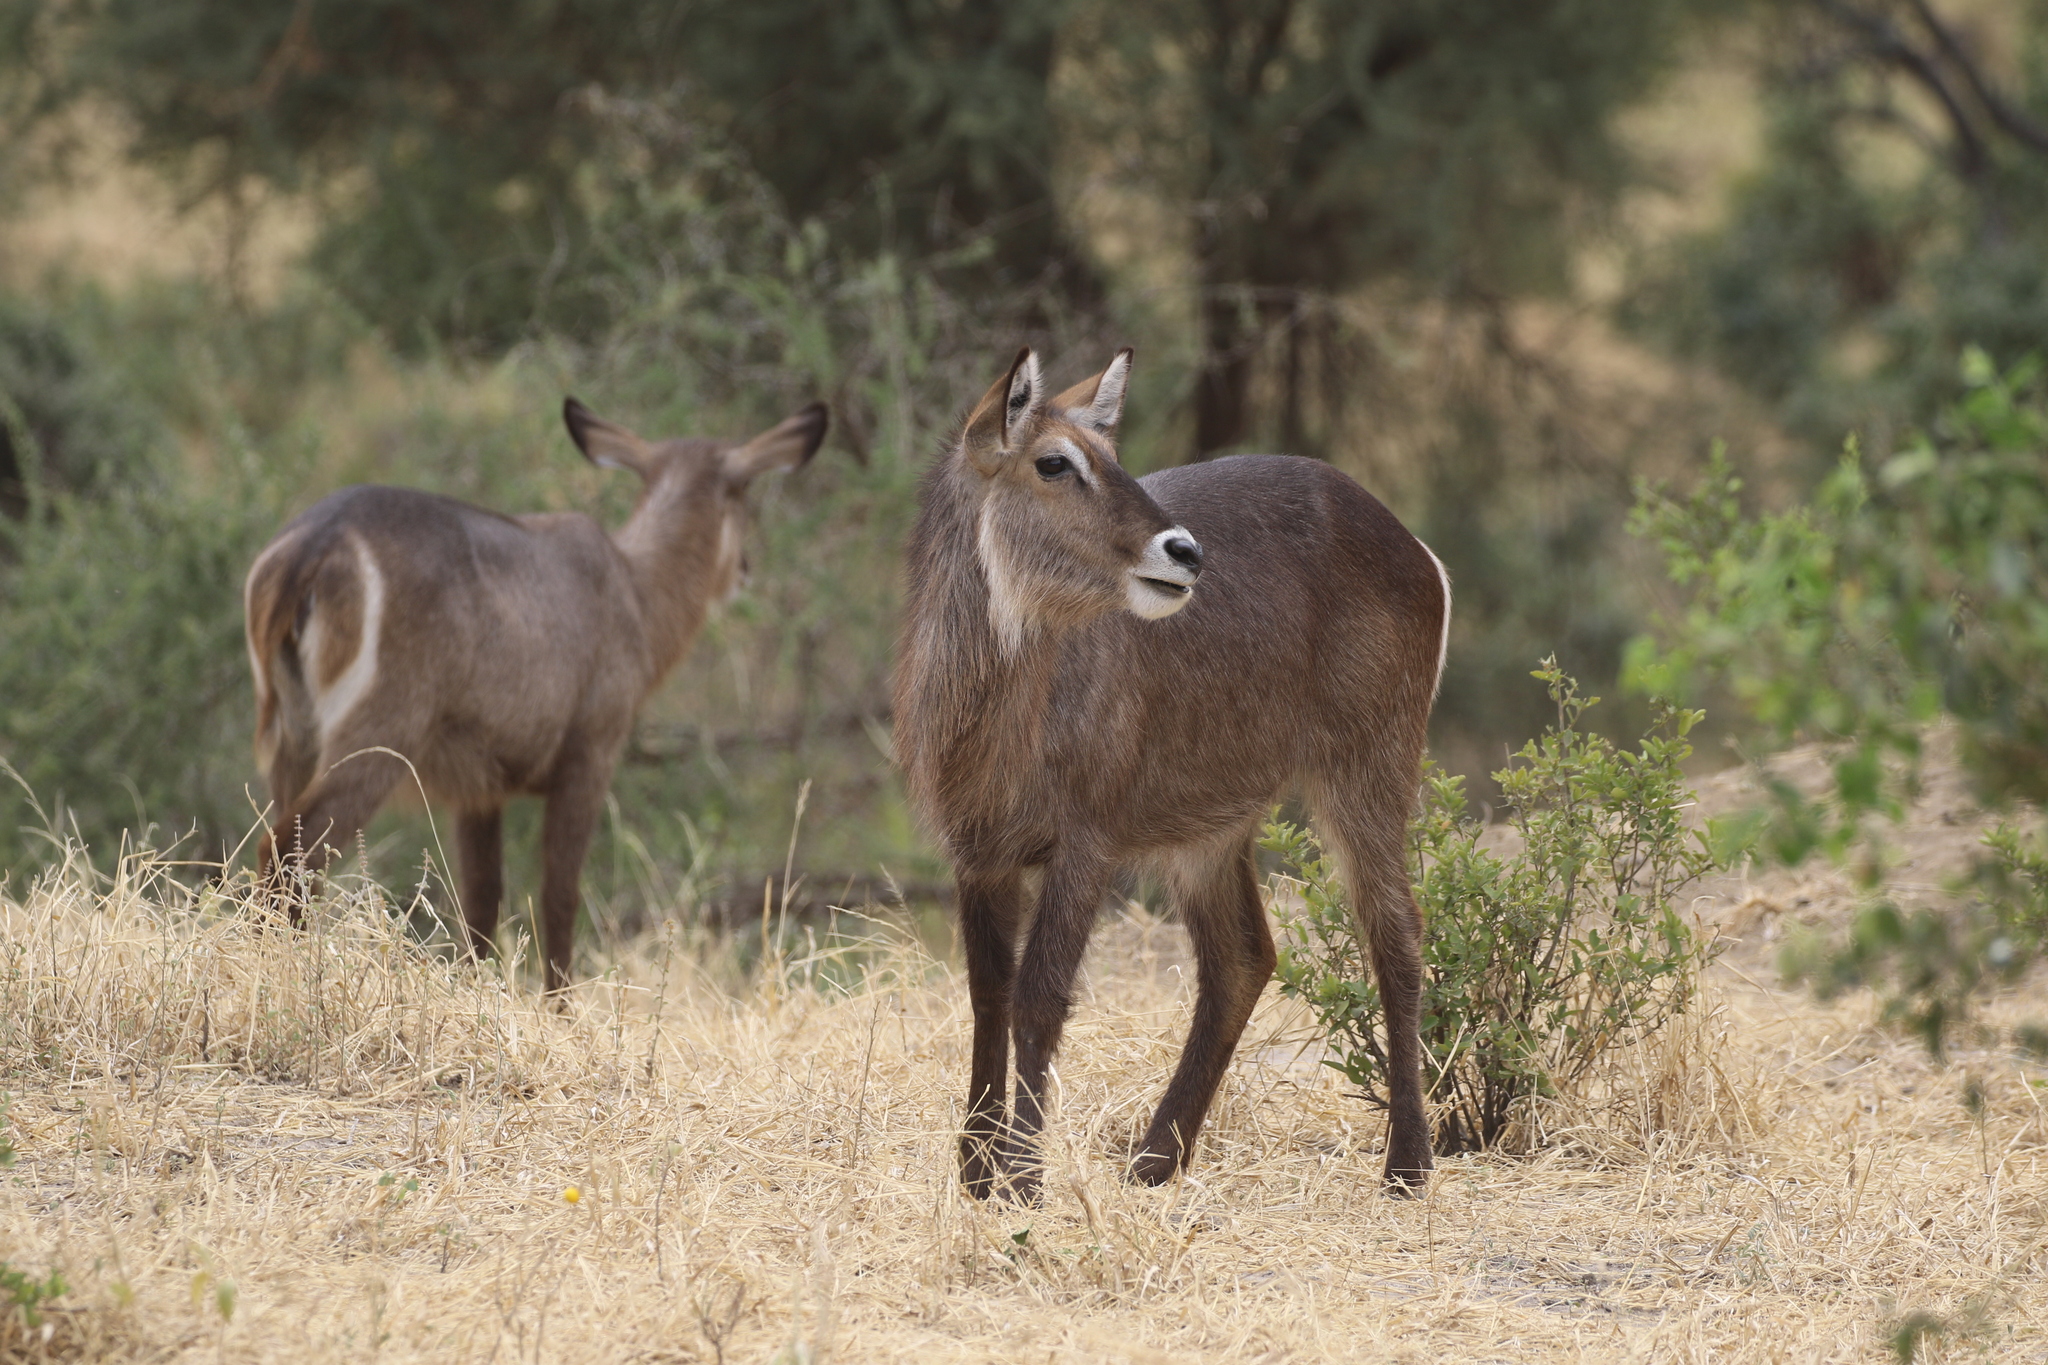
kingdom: Animalia
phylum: Chordata
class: Mammalia
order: Artiodactyla
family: Bovidae
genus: Kobus
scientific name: Kobus ellipsiprymnus
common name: Waterbuck
